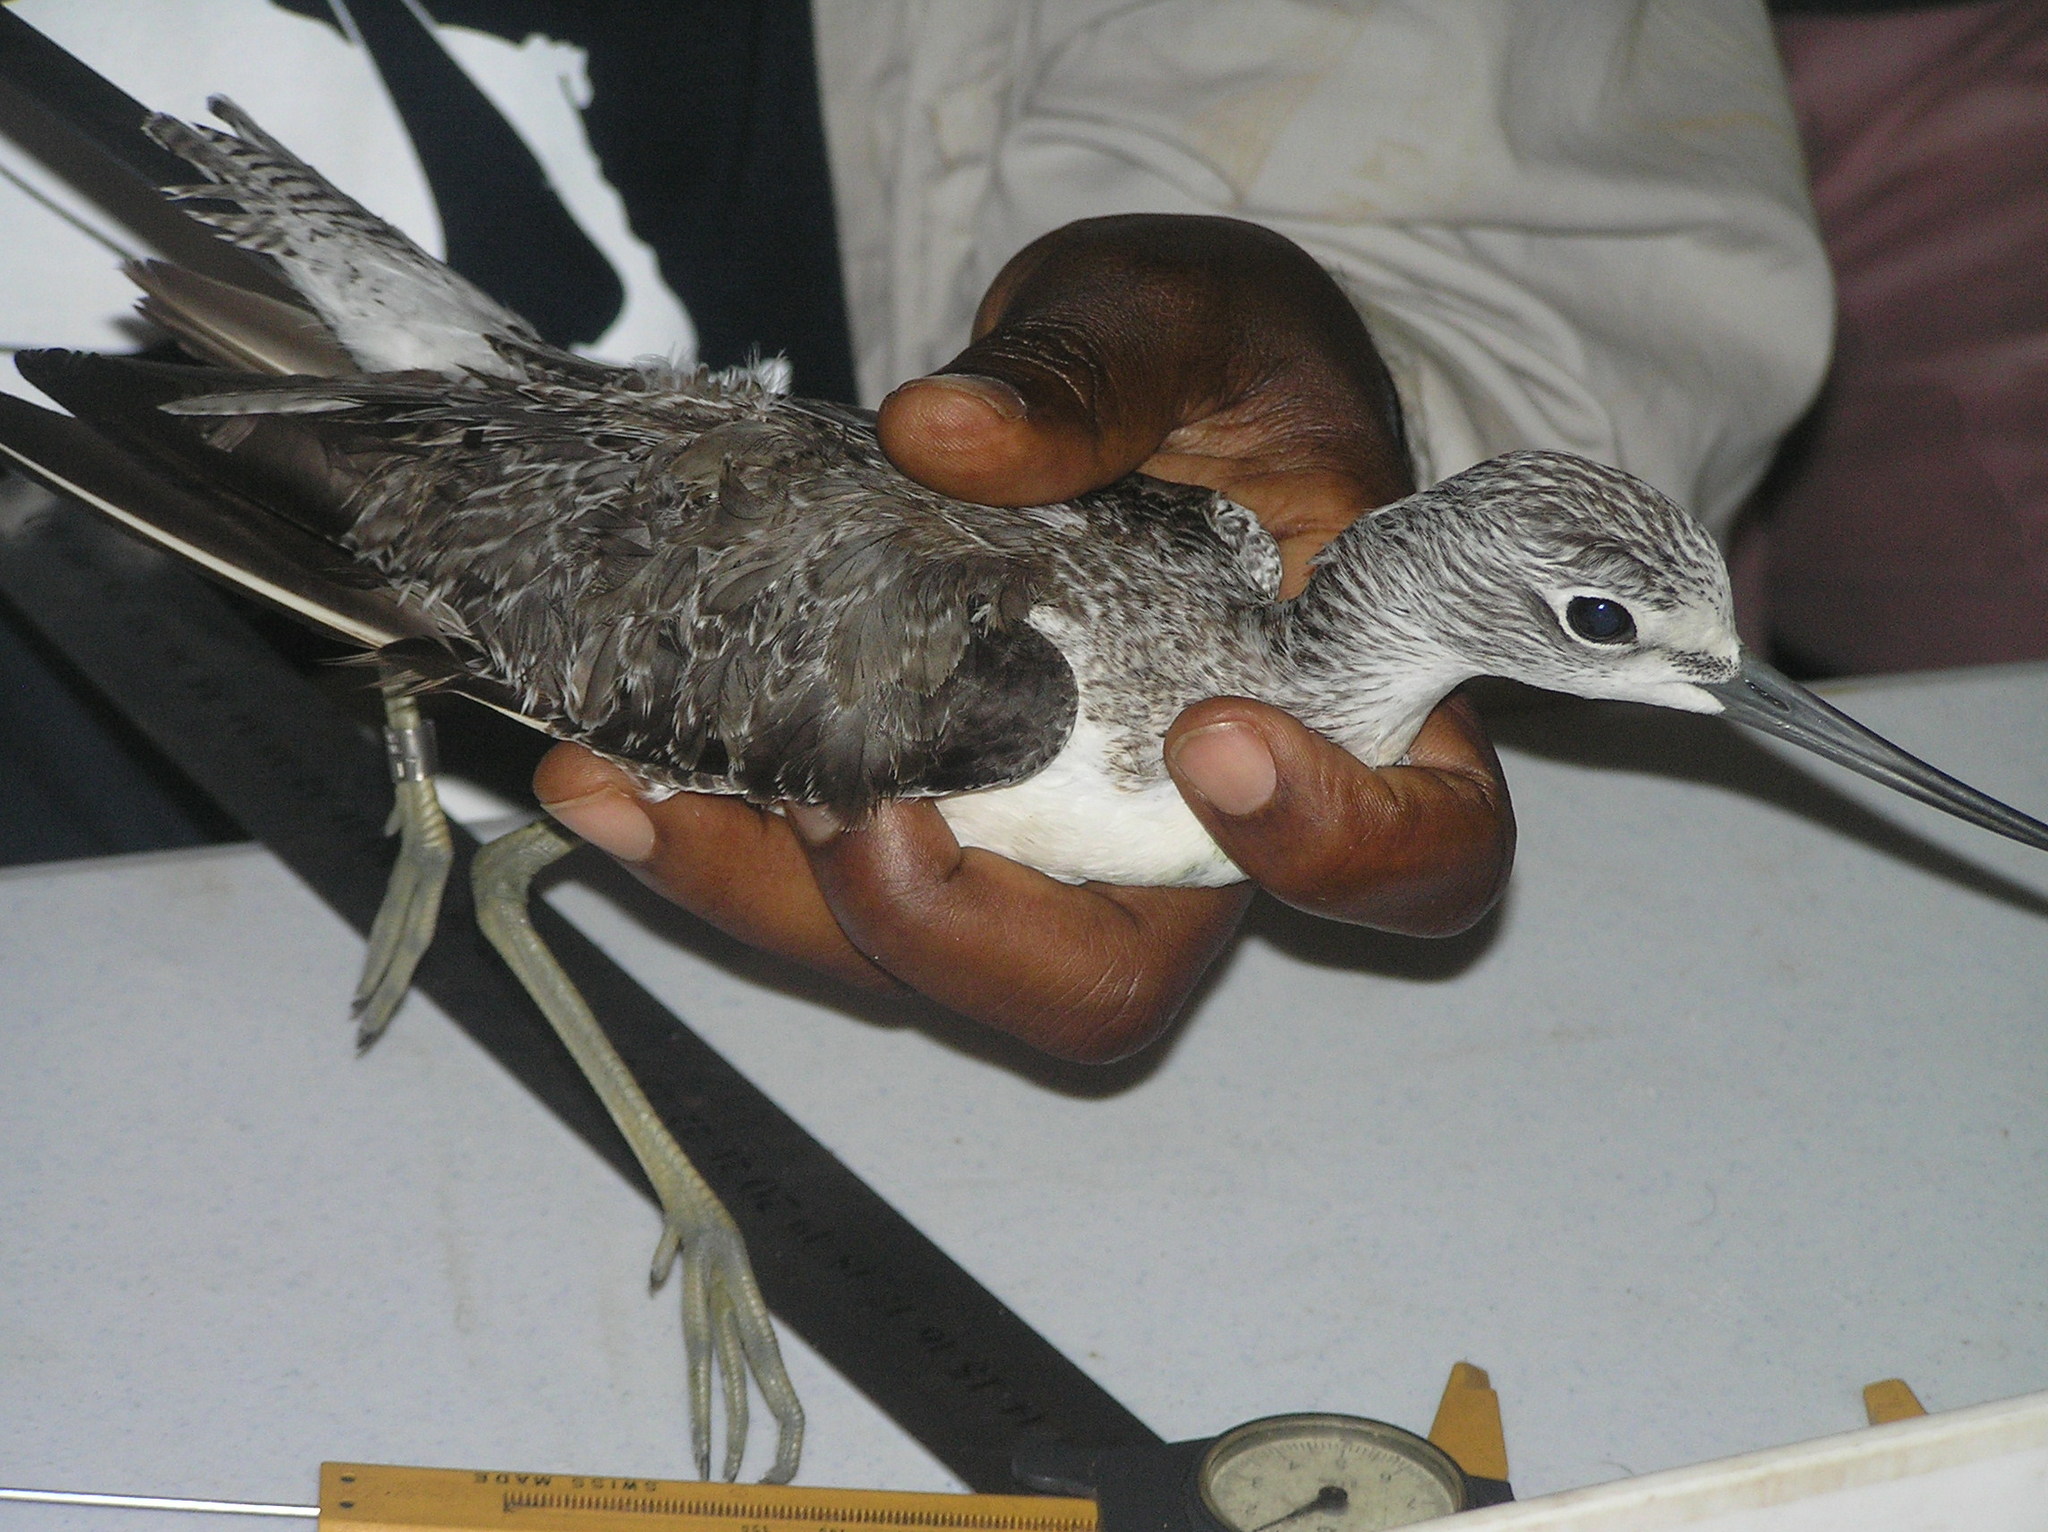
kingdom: Animalia
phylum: Chordata
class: Aves
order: Charadriiformes
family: Scolopacidae
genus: Tringa
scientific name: Tringa nebularia
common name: Common greenshank
